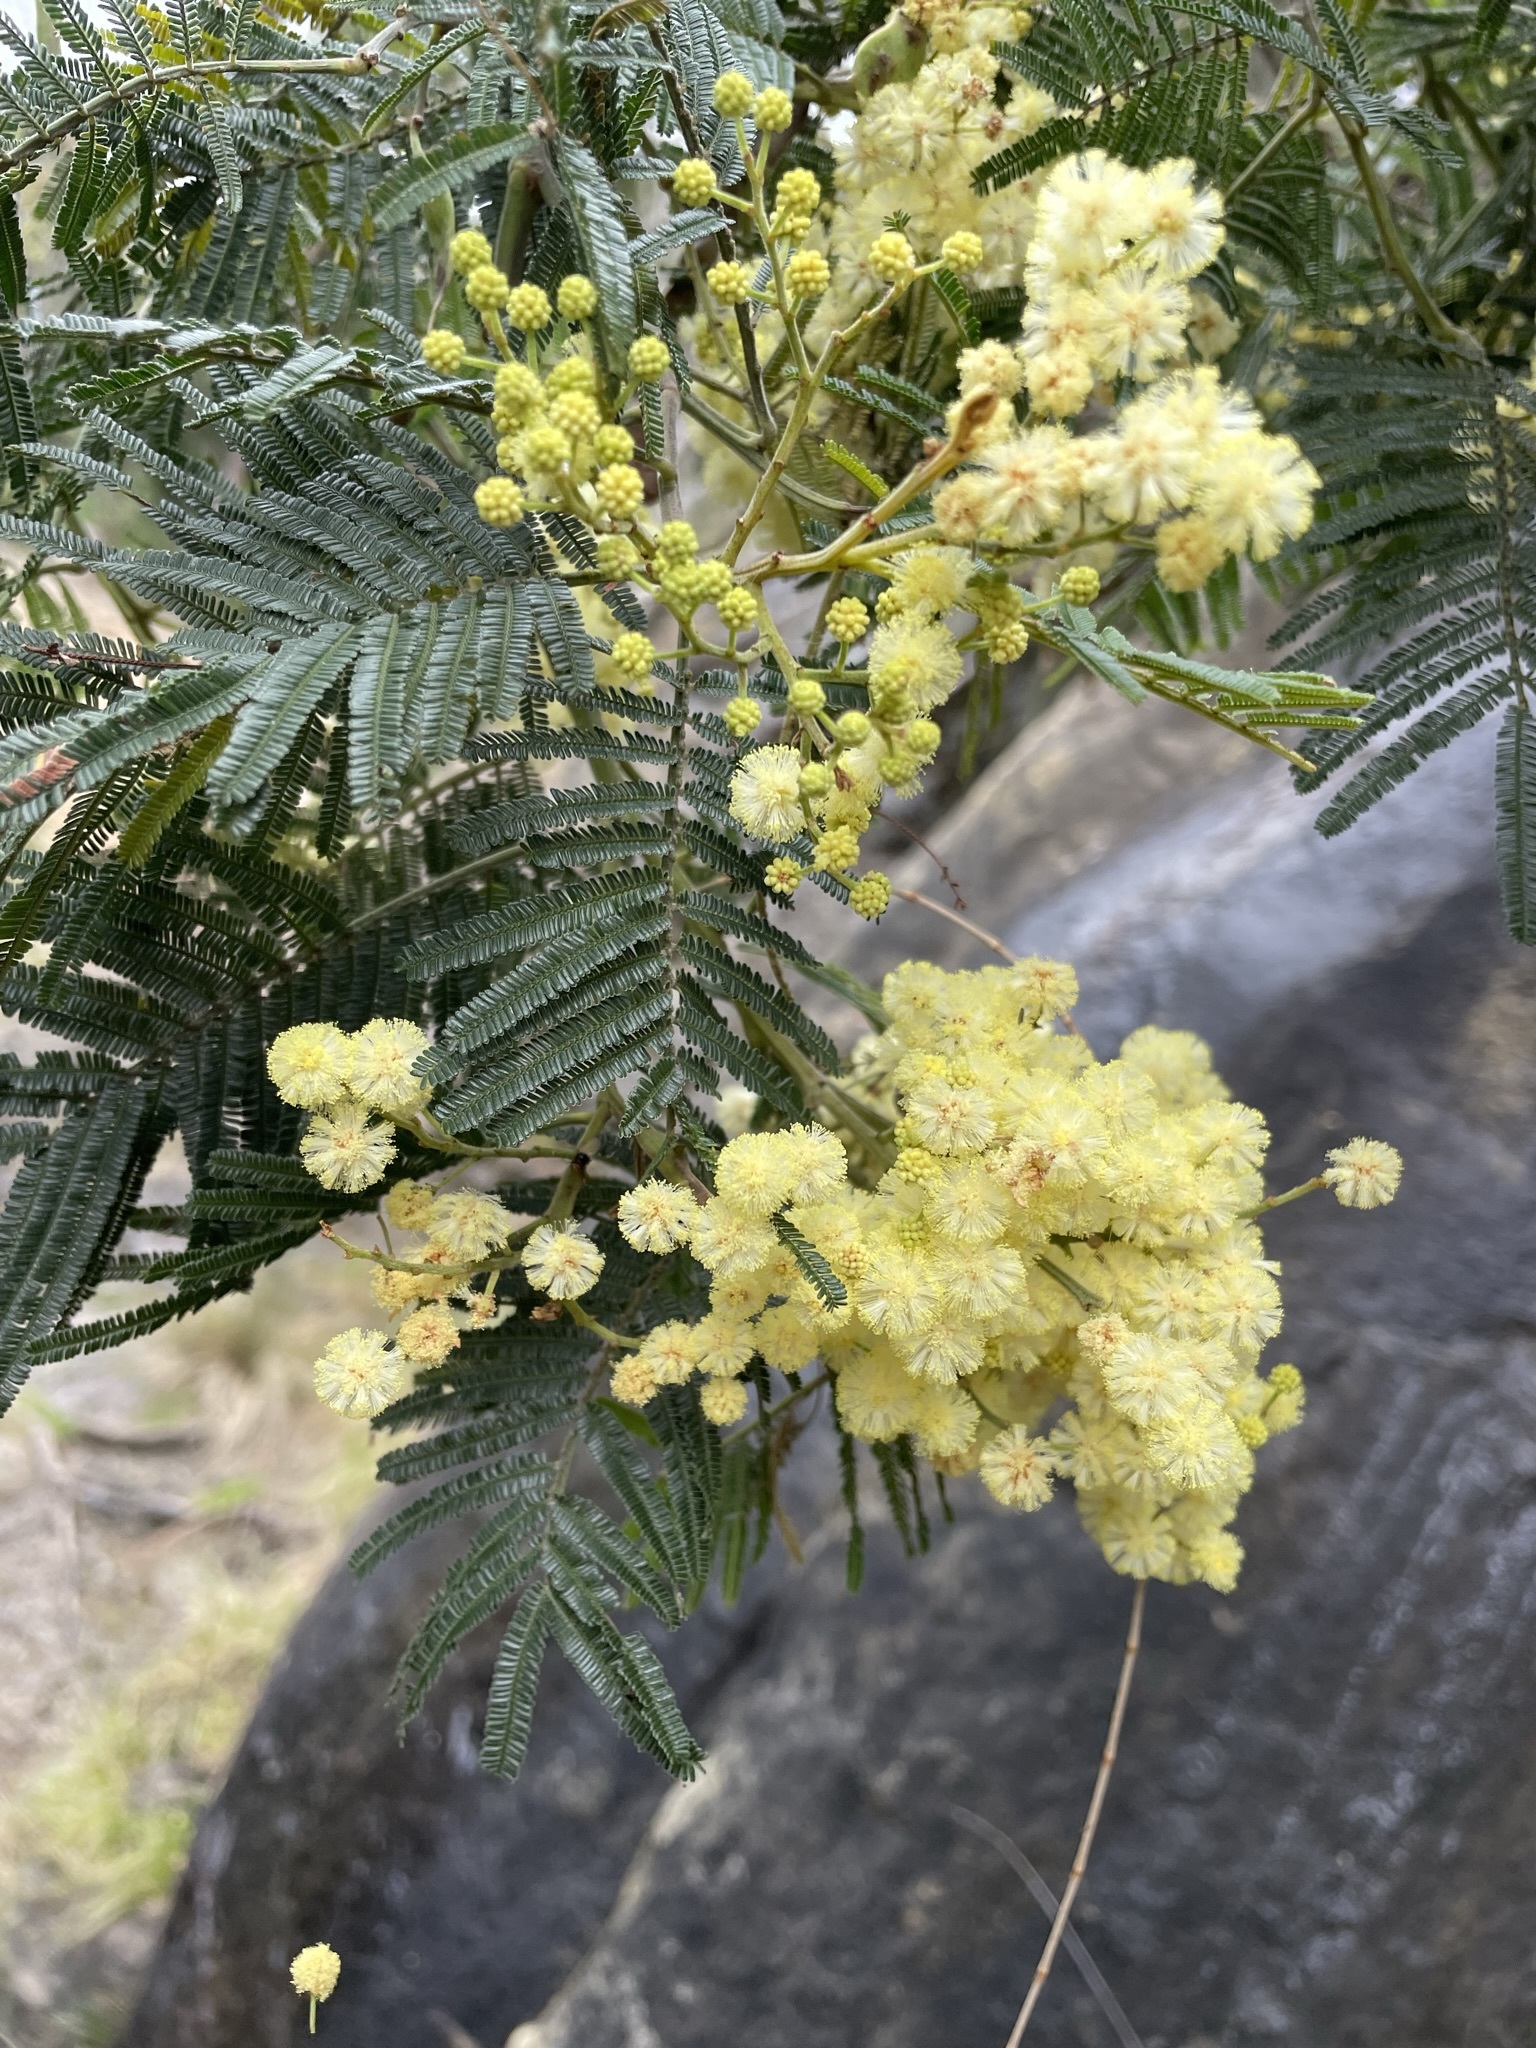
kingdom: Plantae
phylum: Tracheophyta
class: Magnoliopsida
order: Fabales
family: Fabaceae
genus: Acacia
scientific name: Acacia mearnsii
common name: Black wattle
